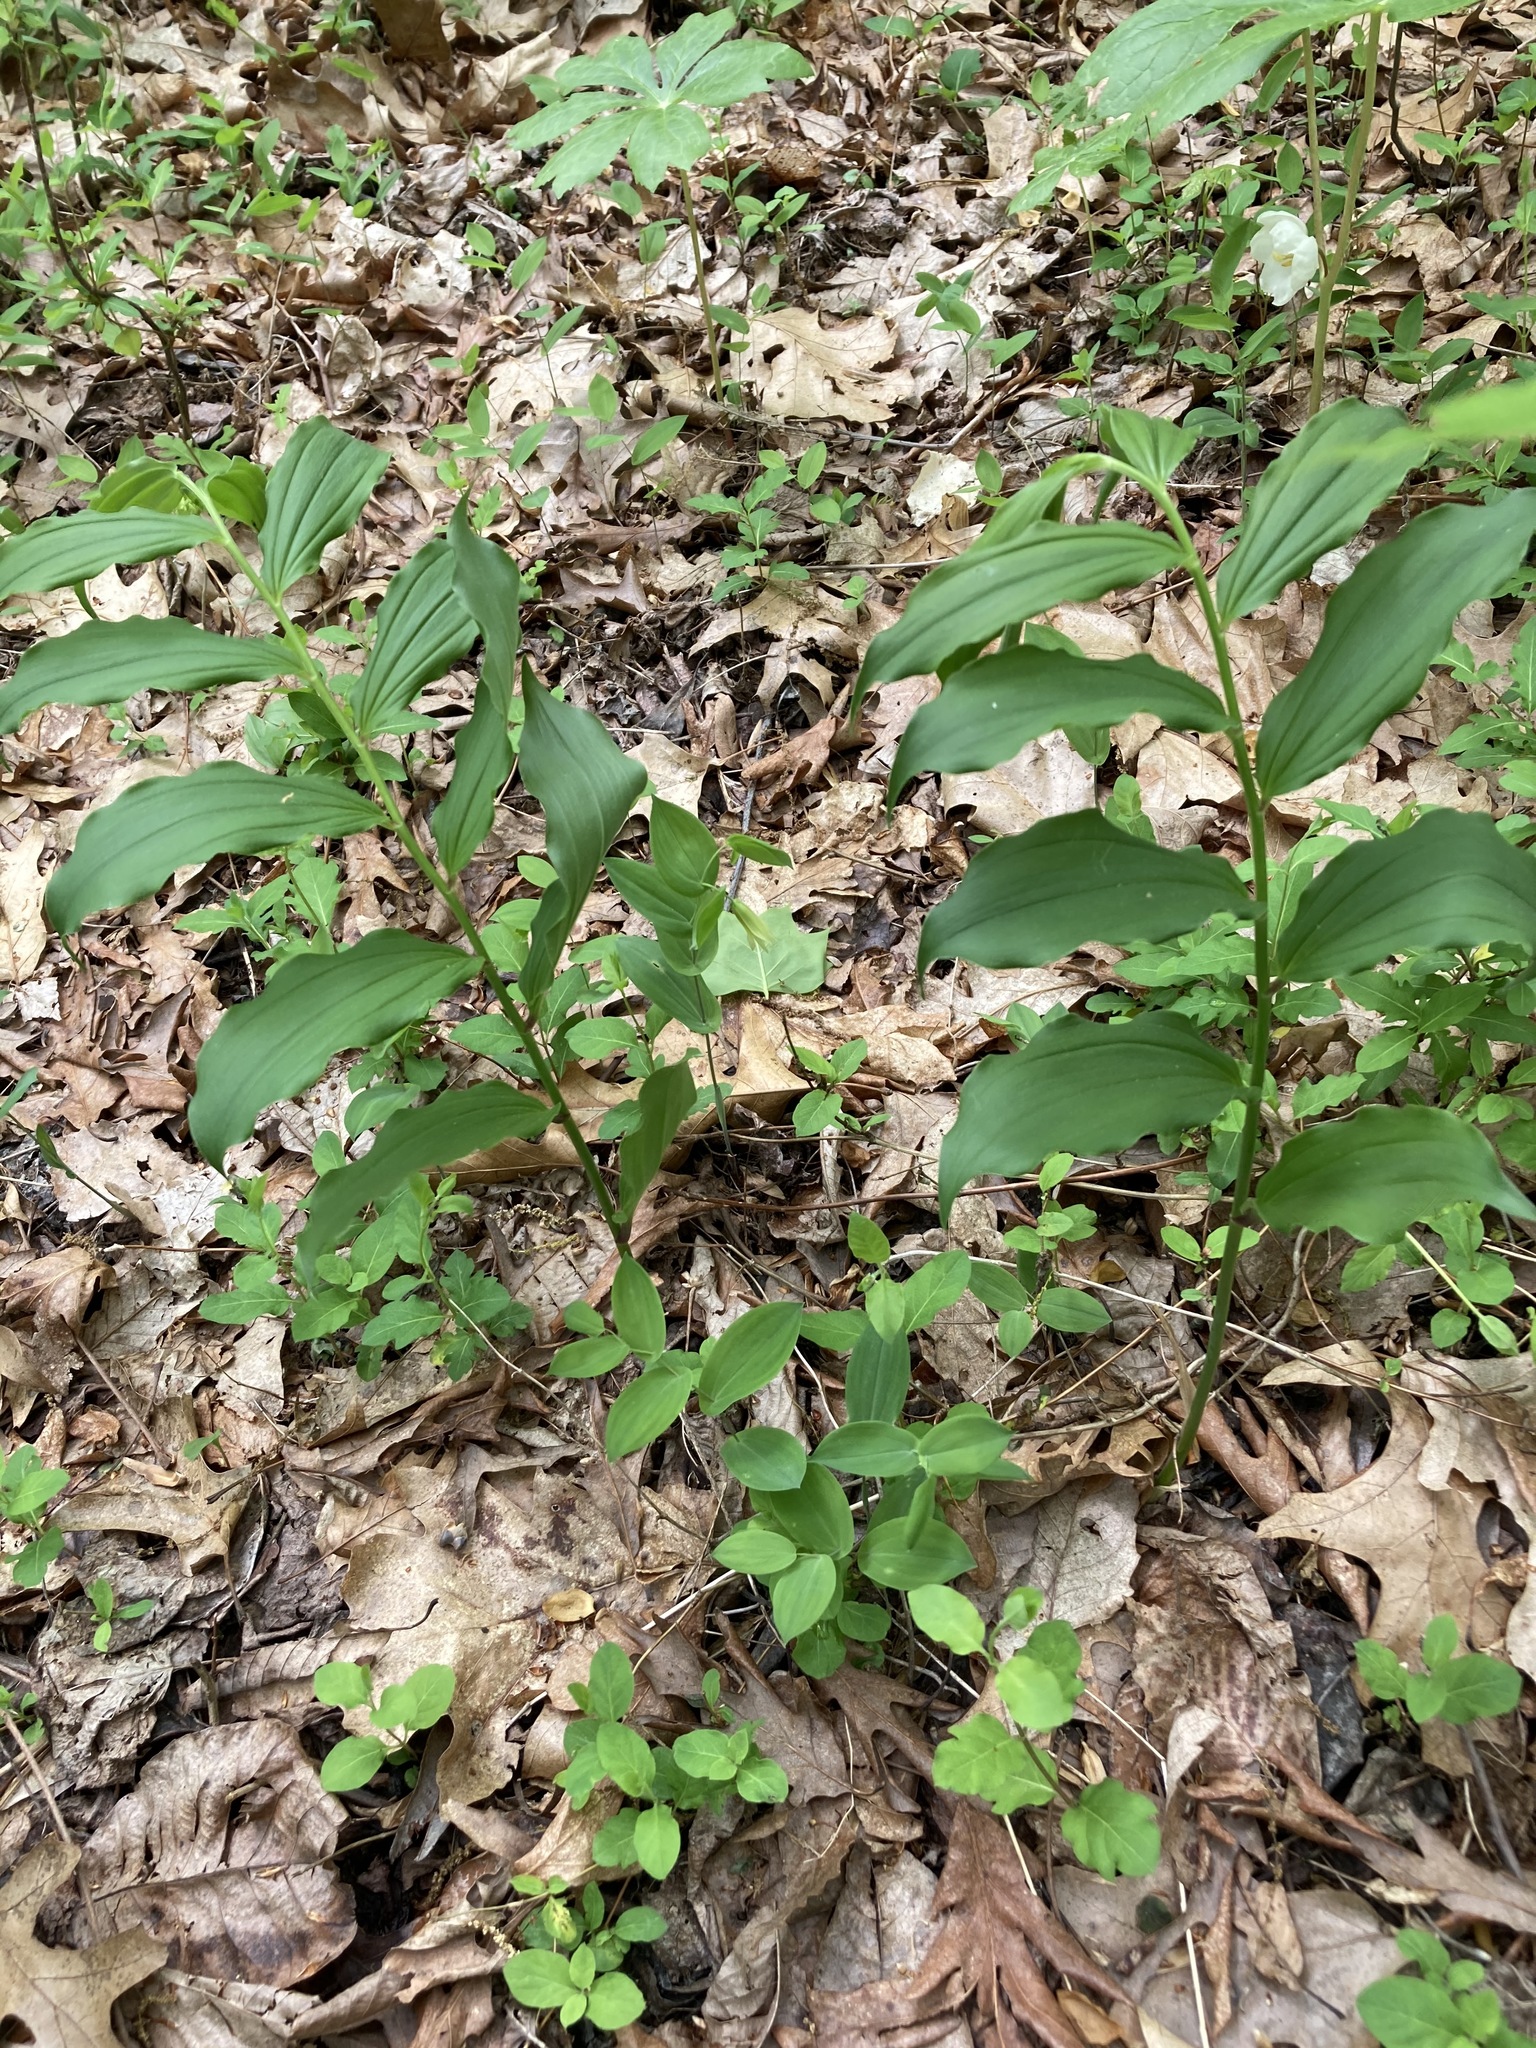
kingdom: Plantae
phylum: Tracheophyta
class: Liliopsida
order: Asparagales
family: Asparagaceae
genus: Maianthemum
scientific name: Maianthemum racemosum
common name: False spikenard
